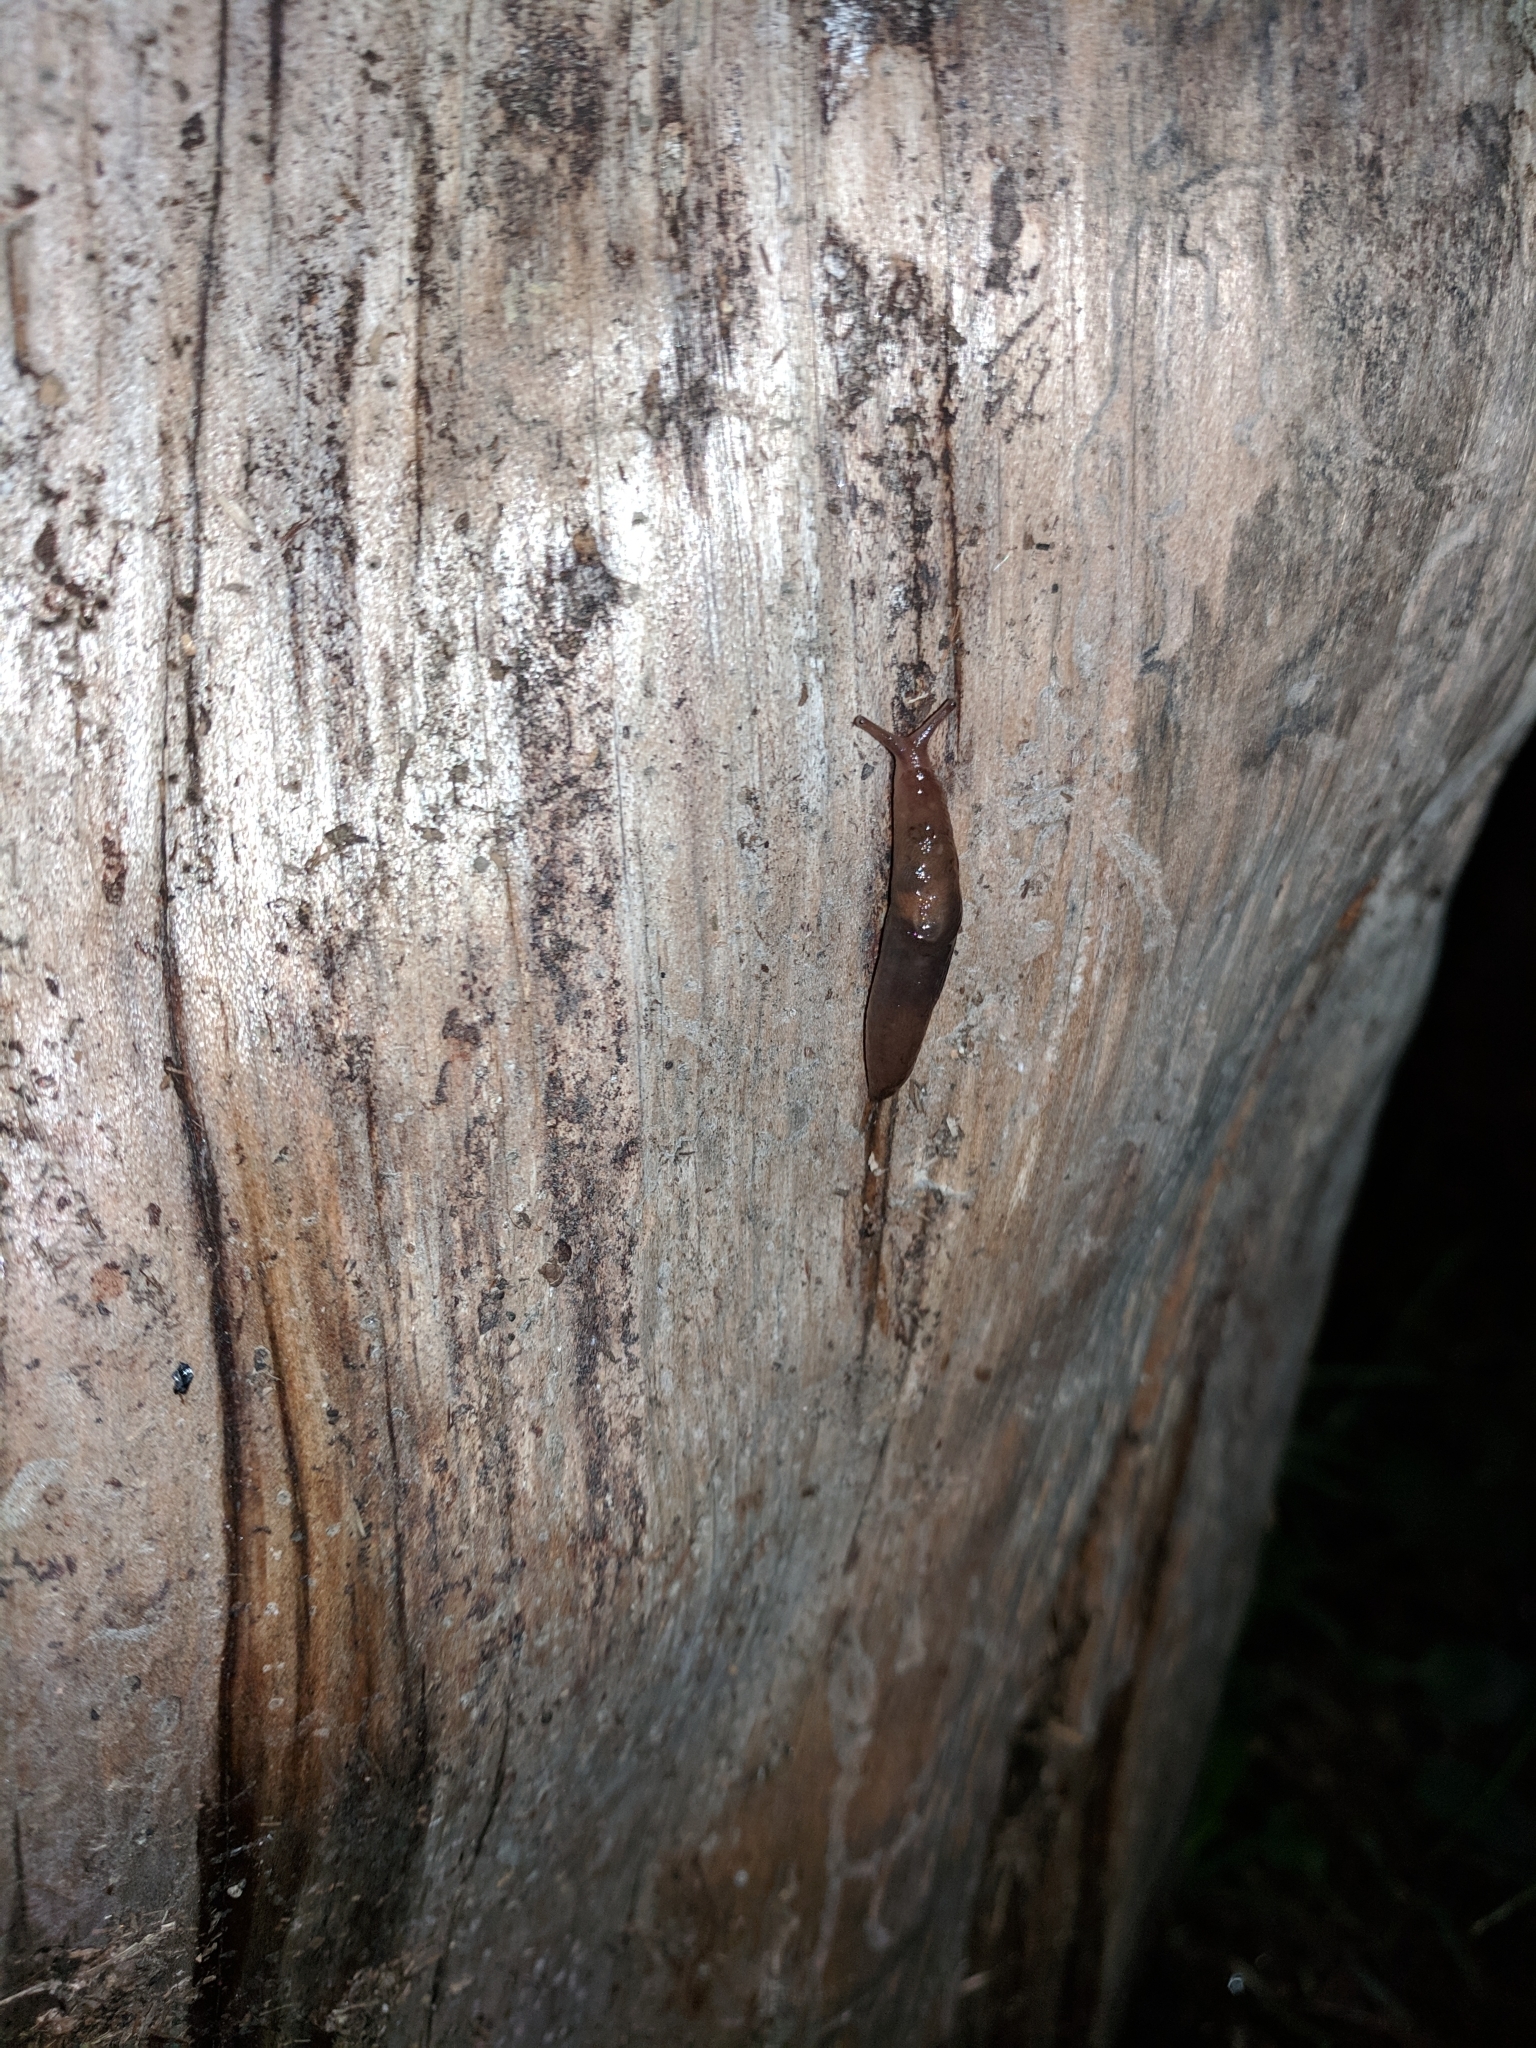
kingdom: Animalia
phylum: Mollusca
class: Gastropoda
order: Stylommatophora
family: Limacidae
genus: Ambigolimax
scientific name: Ambigolimax
